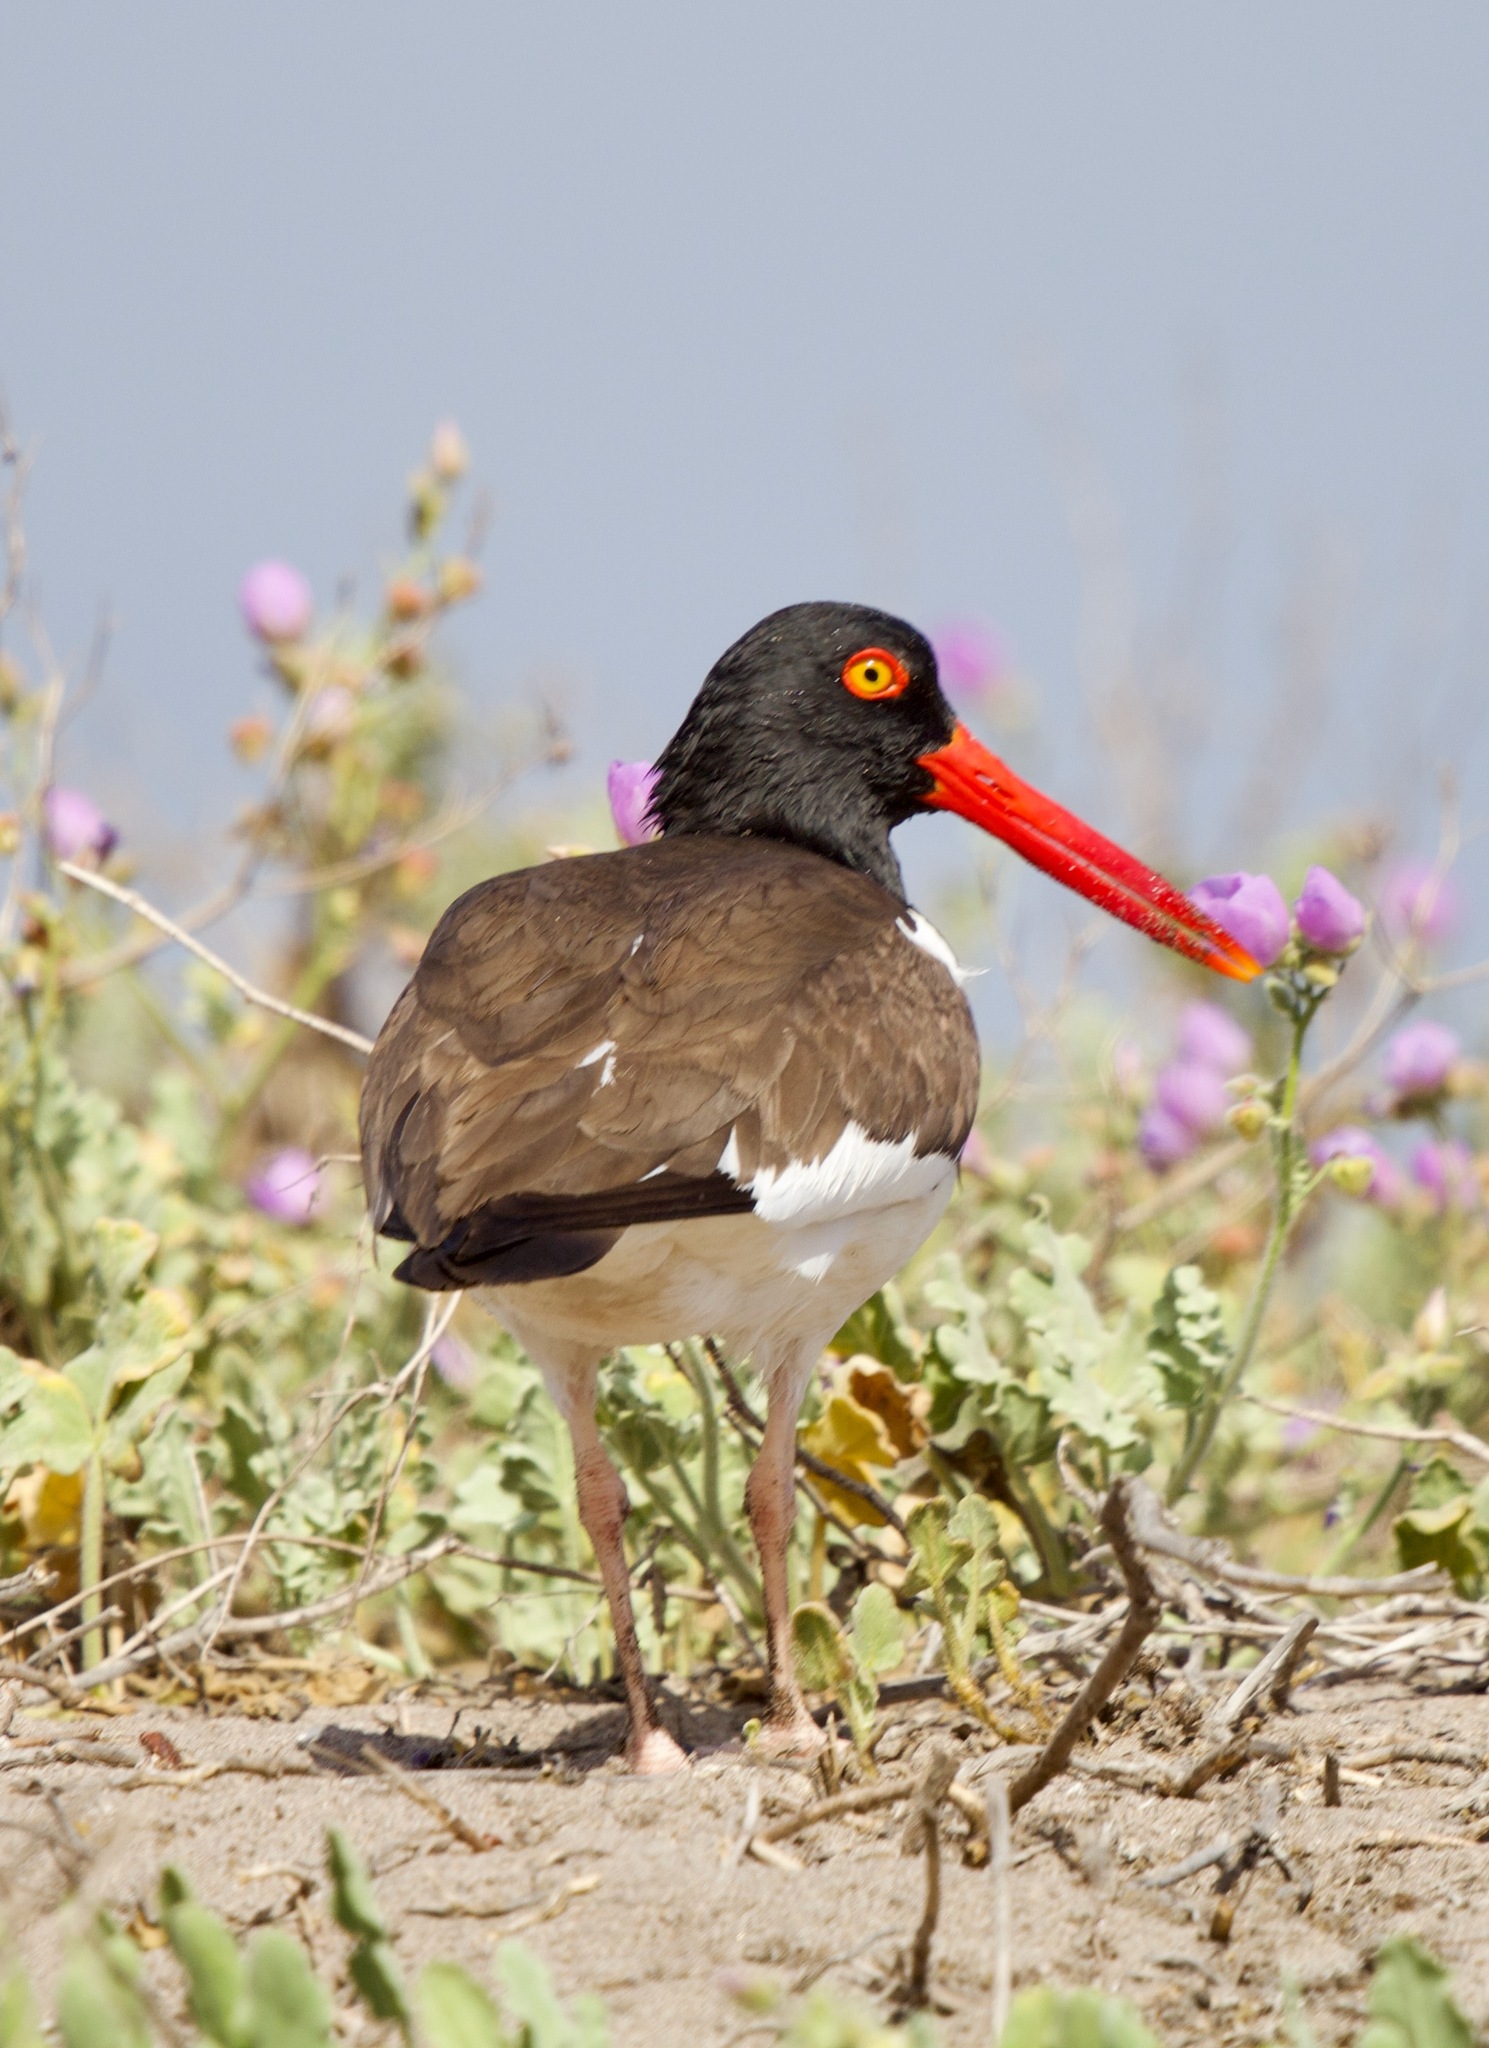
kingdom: Animalia
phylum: Chordata
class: Aves
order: Charadriiformes
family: Haematopodidae
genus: Haematopus
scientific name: Haematopus palliatus
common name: American oystercatcher
